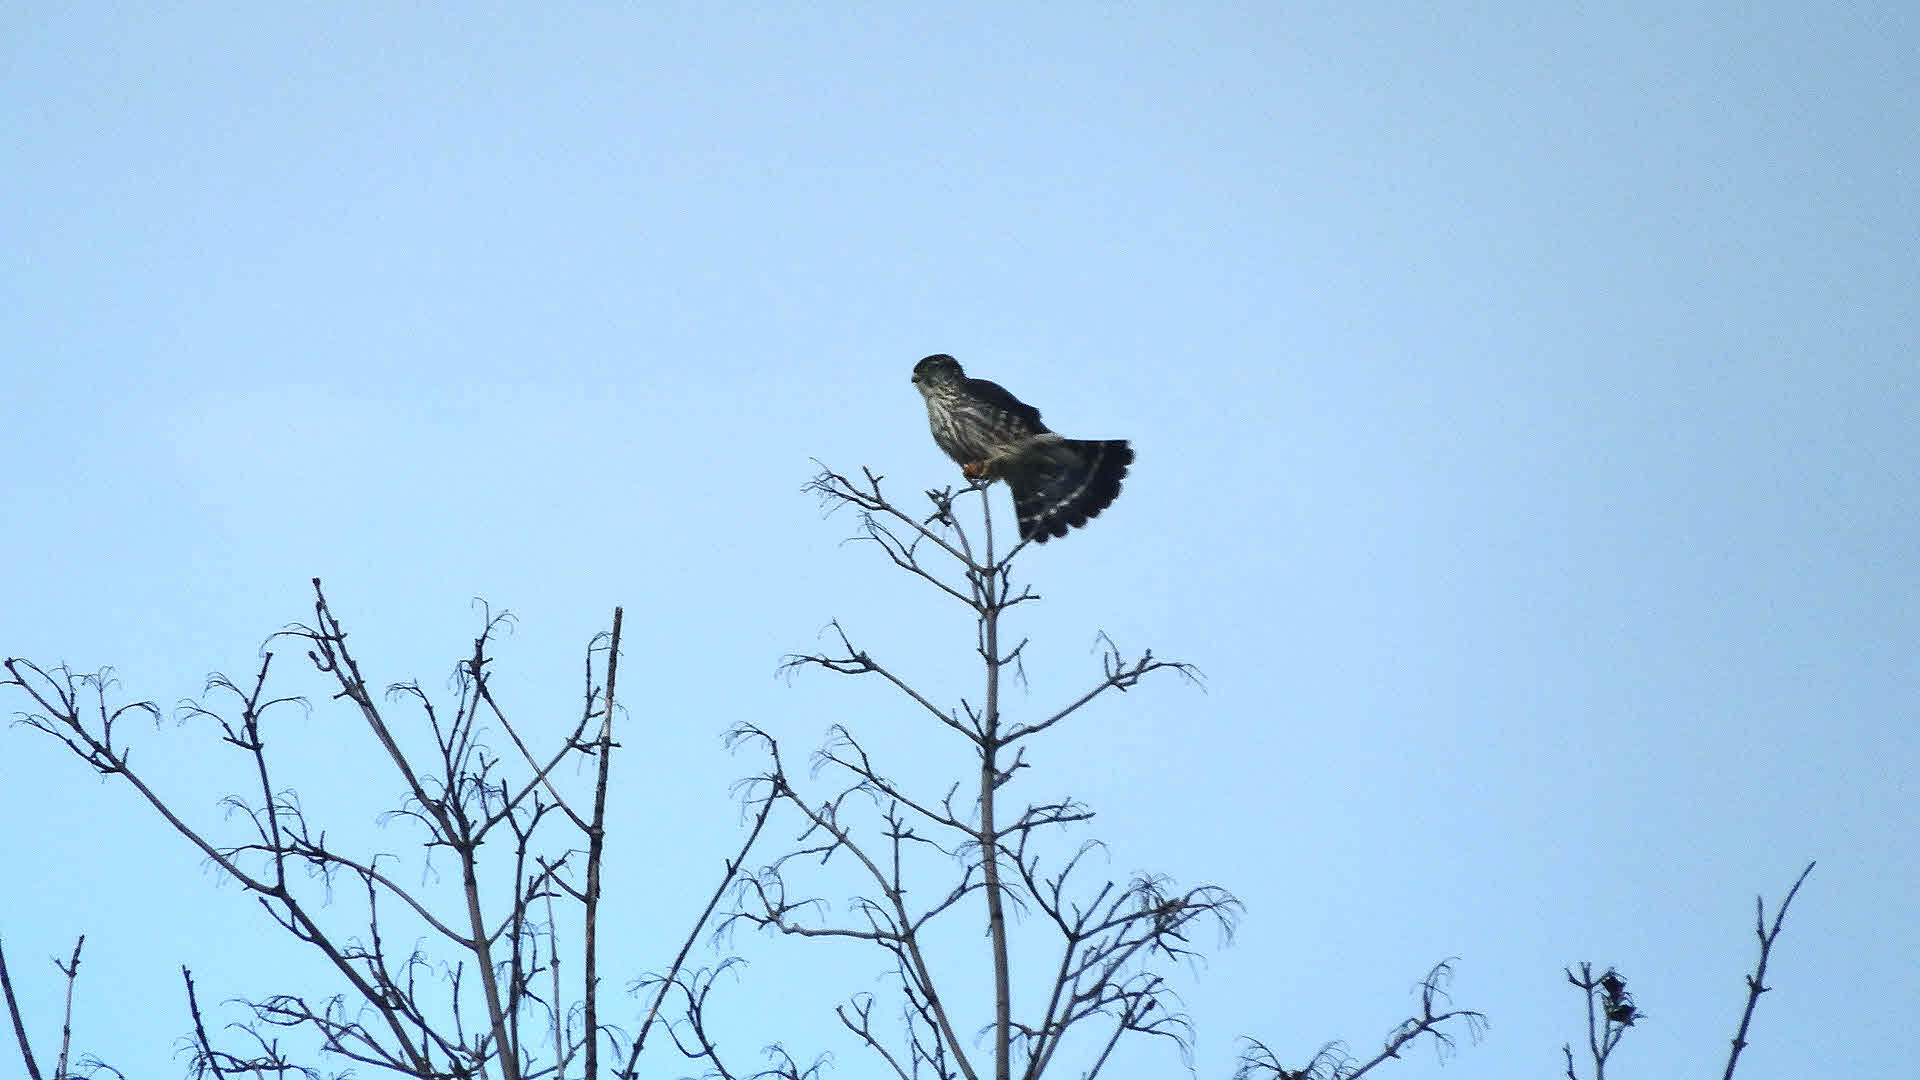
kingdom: Animalia
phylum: Chordata
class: Aves
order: Falconiformes
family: Falconidae
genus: Falco
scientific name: Falco columbarius
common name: Merlin
